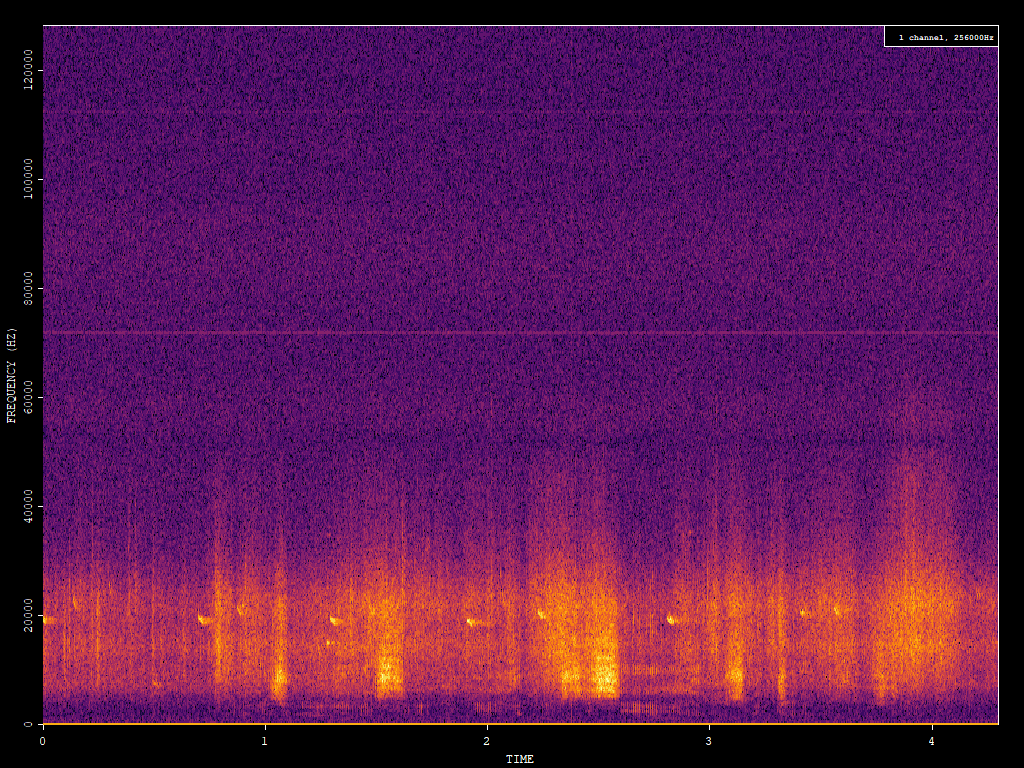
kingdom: Animalia
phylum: Chordata
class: Mammalia
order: Chiroptera
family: Vespertilionidae
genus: Nyctalus
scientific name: Nyctalus noctula
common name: Noctule
